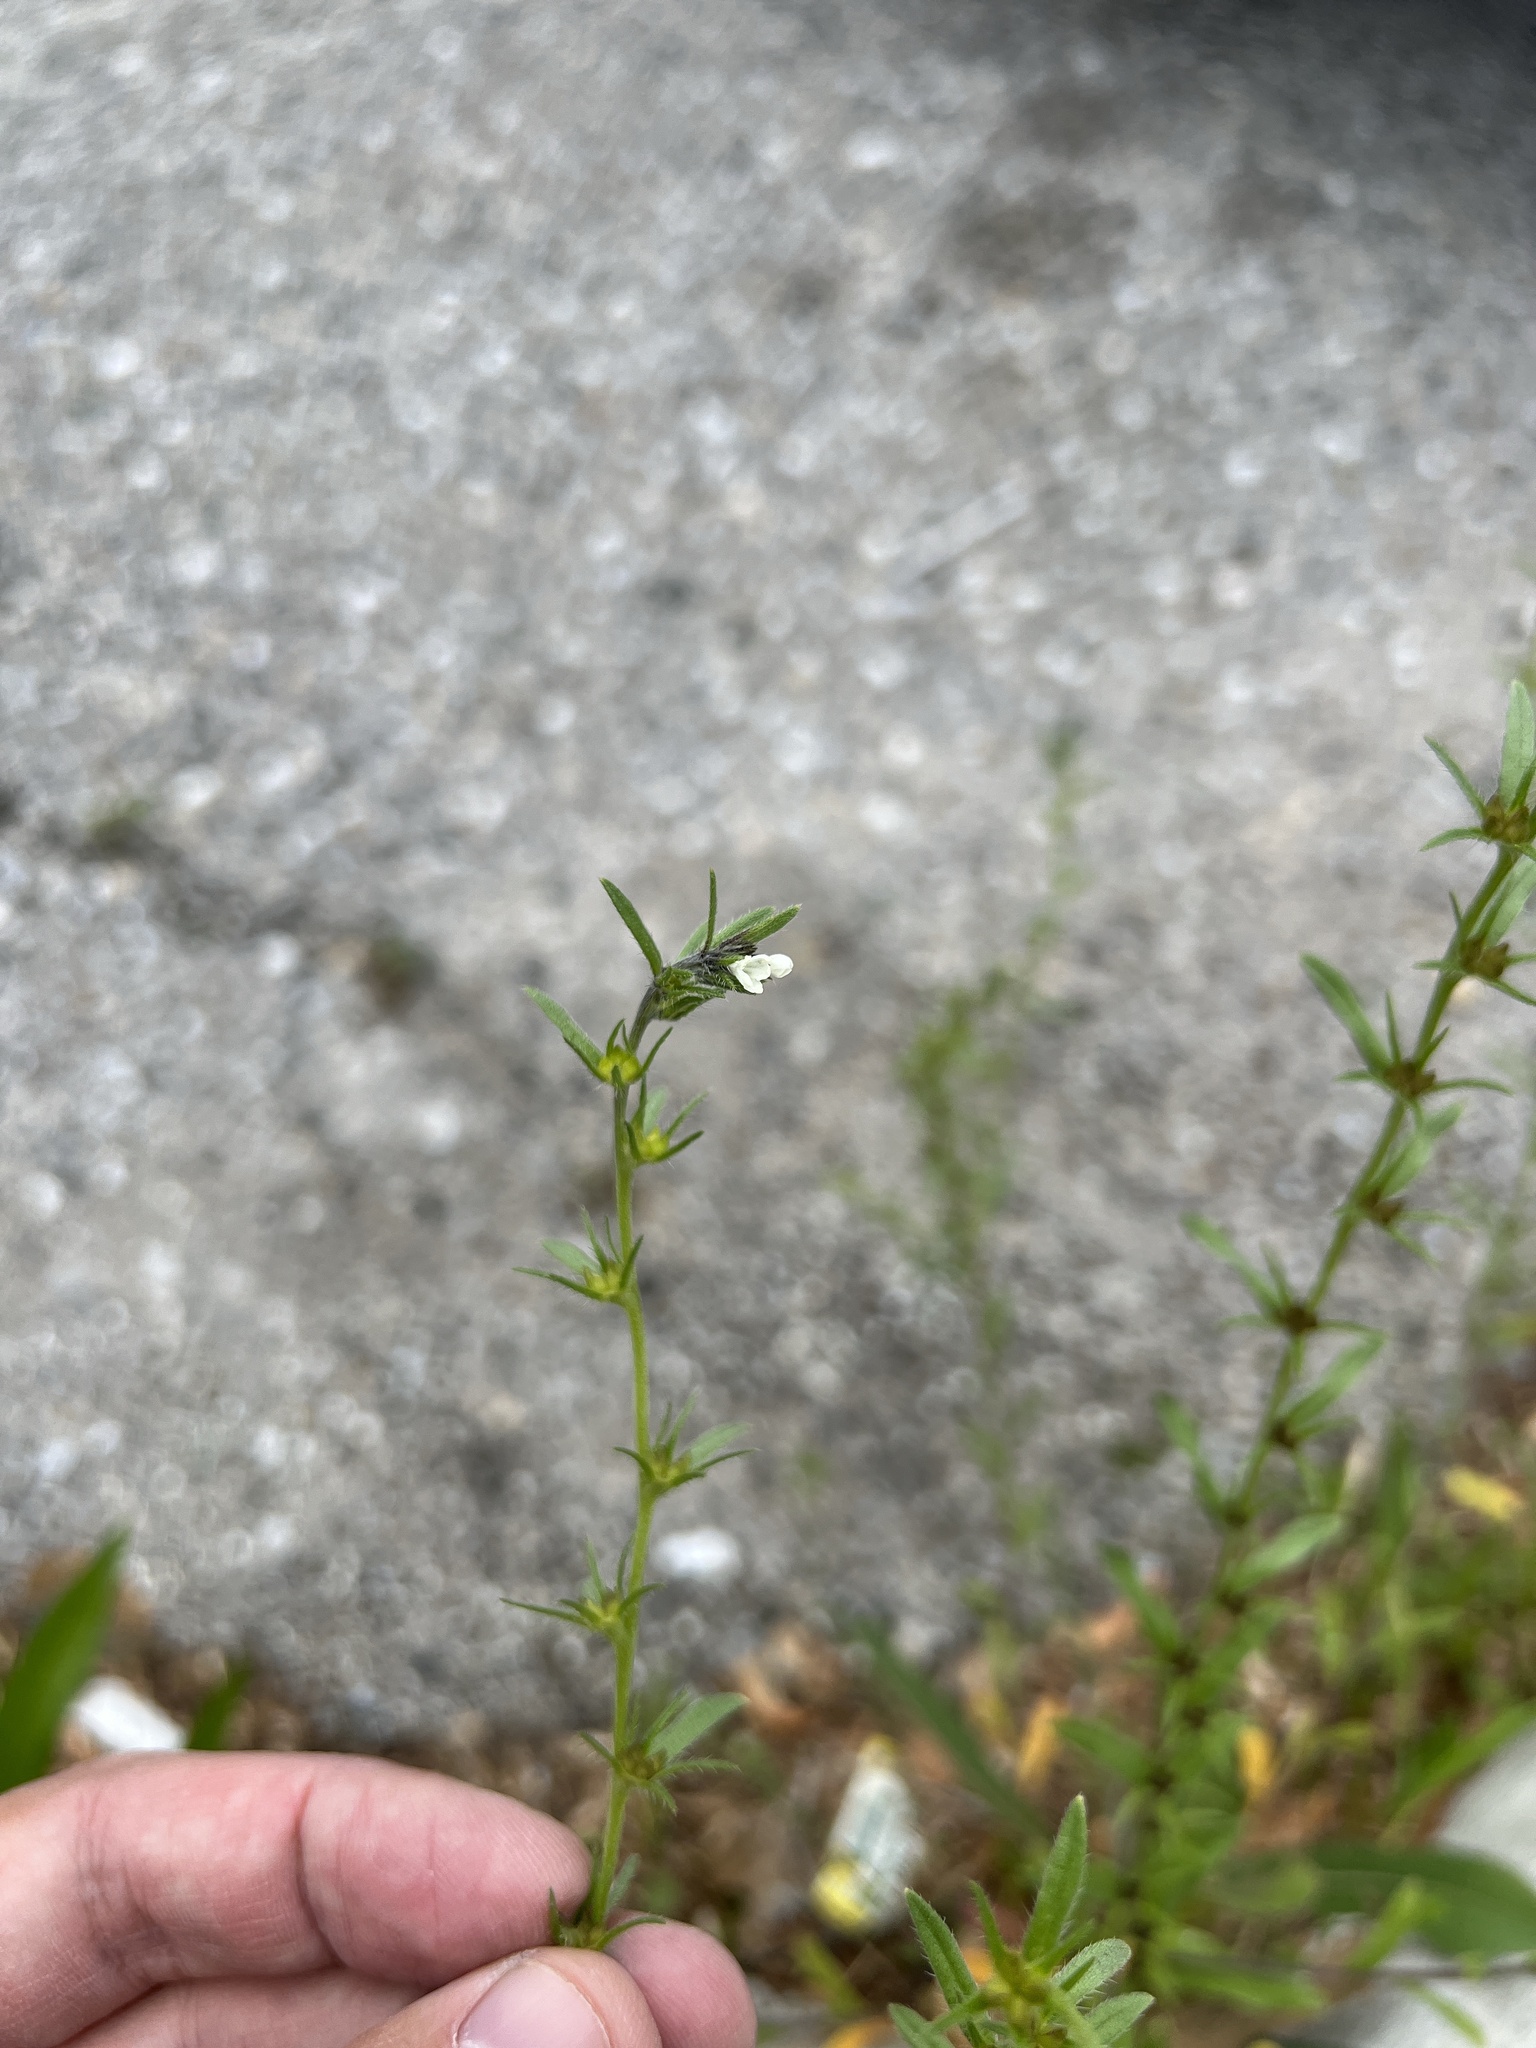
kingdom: Plantae
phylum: Tracheophyta
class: Magnoliopsida
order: Boraginales
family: Boraginaceae
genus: Buglossoides
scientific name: Buglossoides arvensis
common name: Corn gromwell
